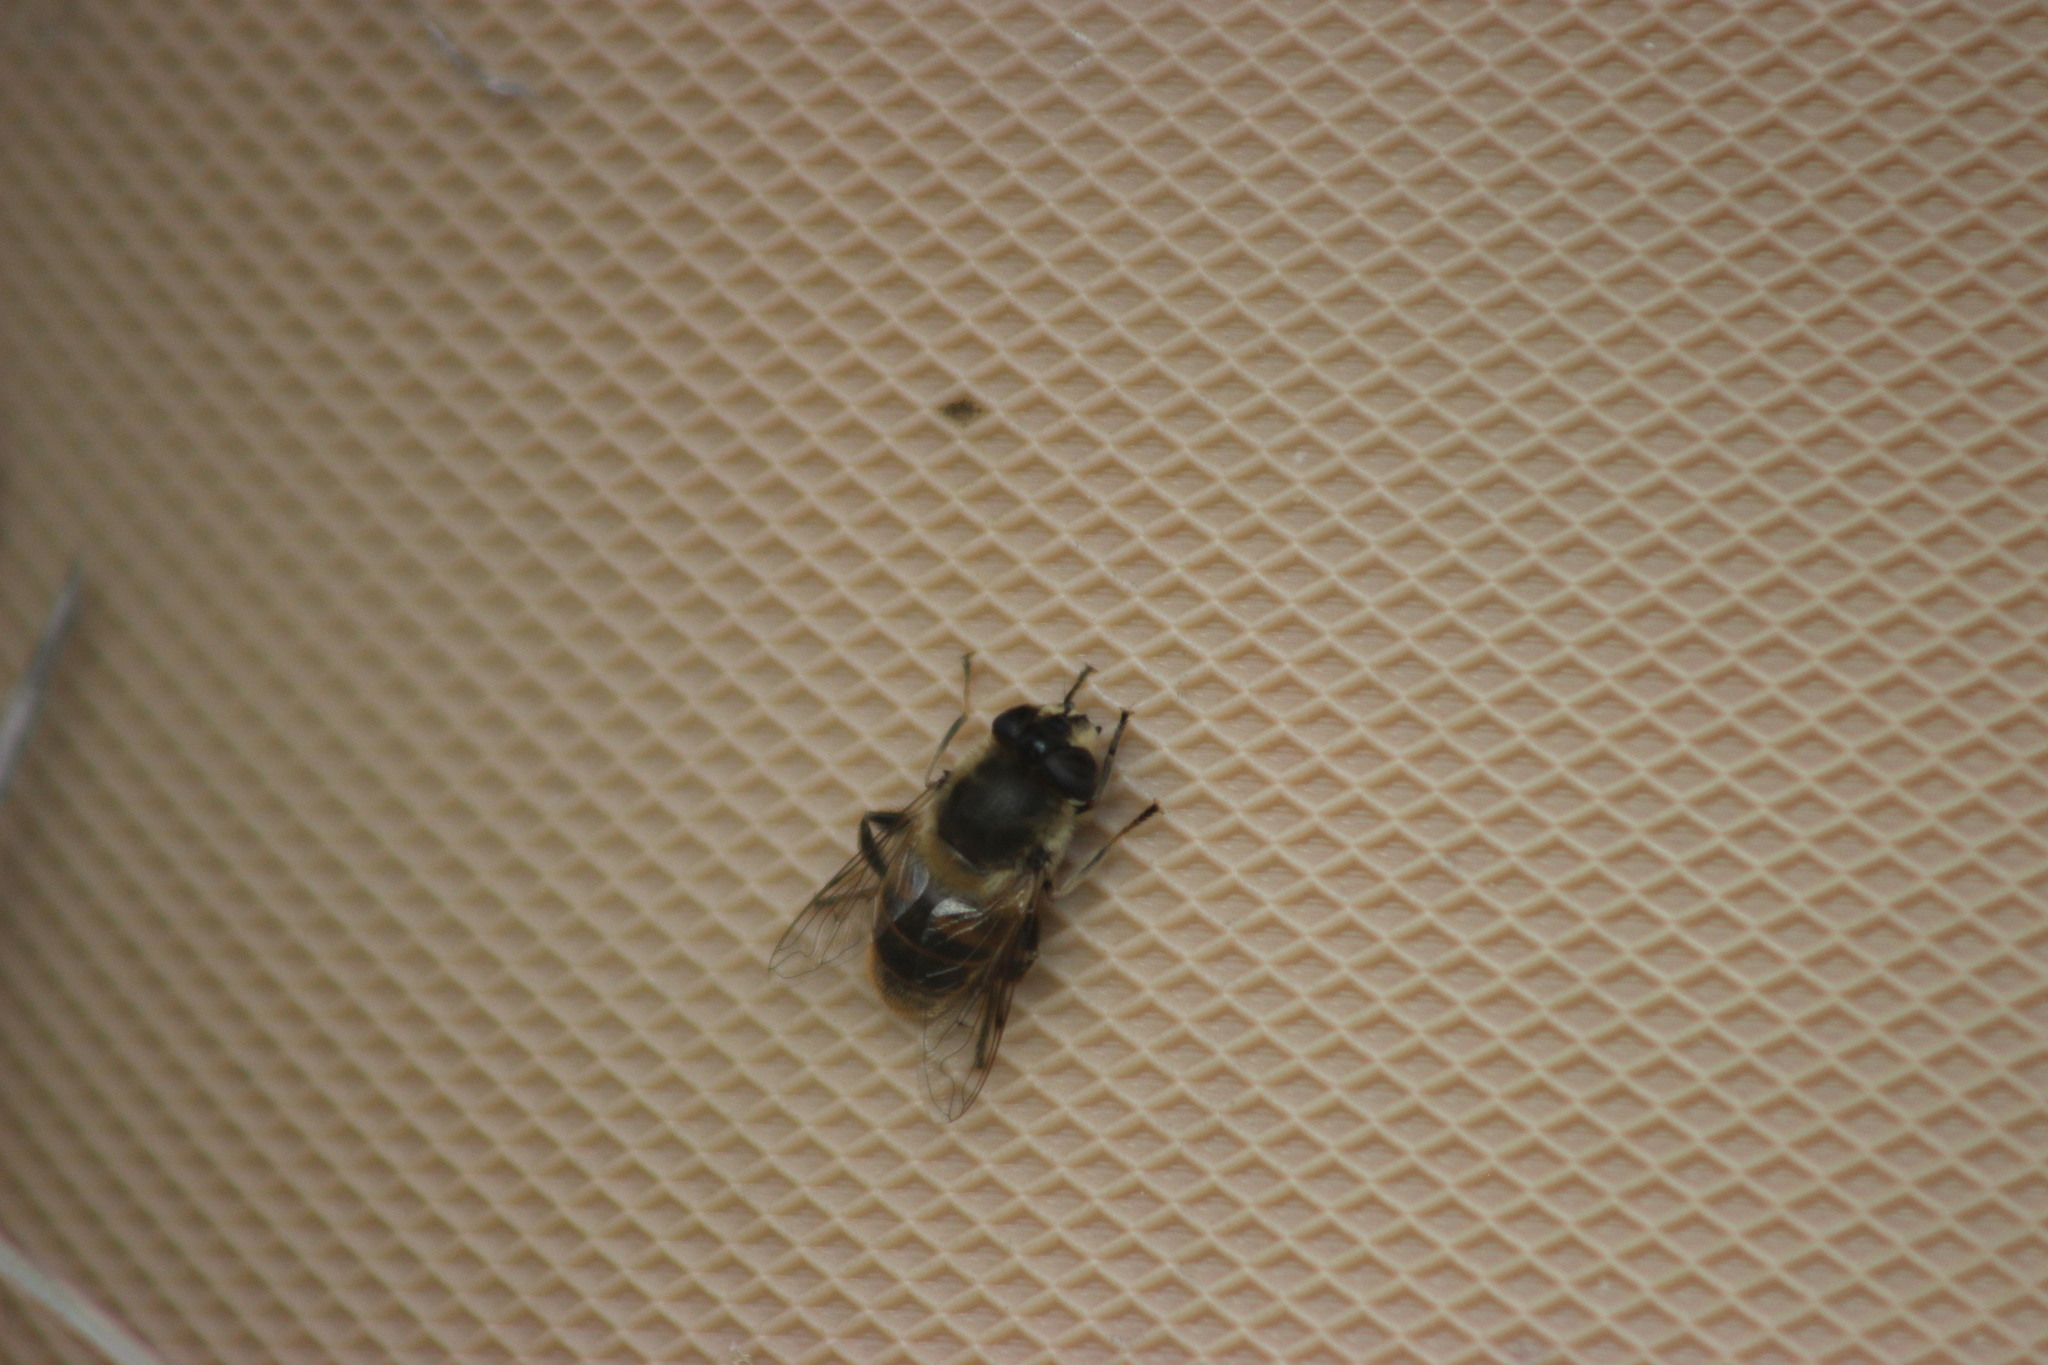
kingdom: Animalia
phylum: Arthropoda
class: Insecta
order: Diptera
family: Syrphidae
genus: Eristalis
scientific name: Eristalis tenax
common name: Drone fly
